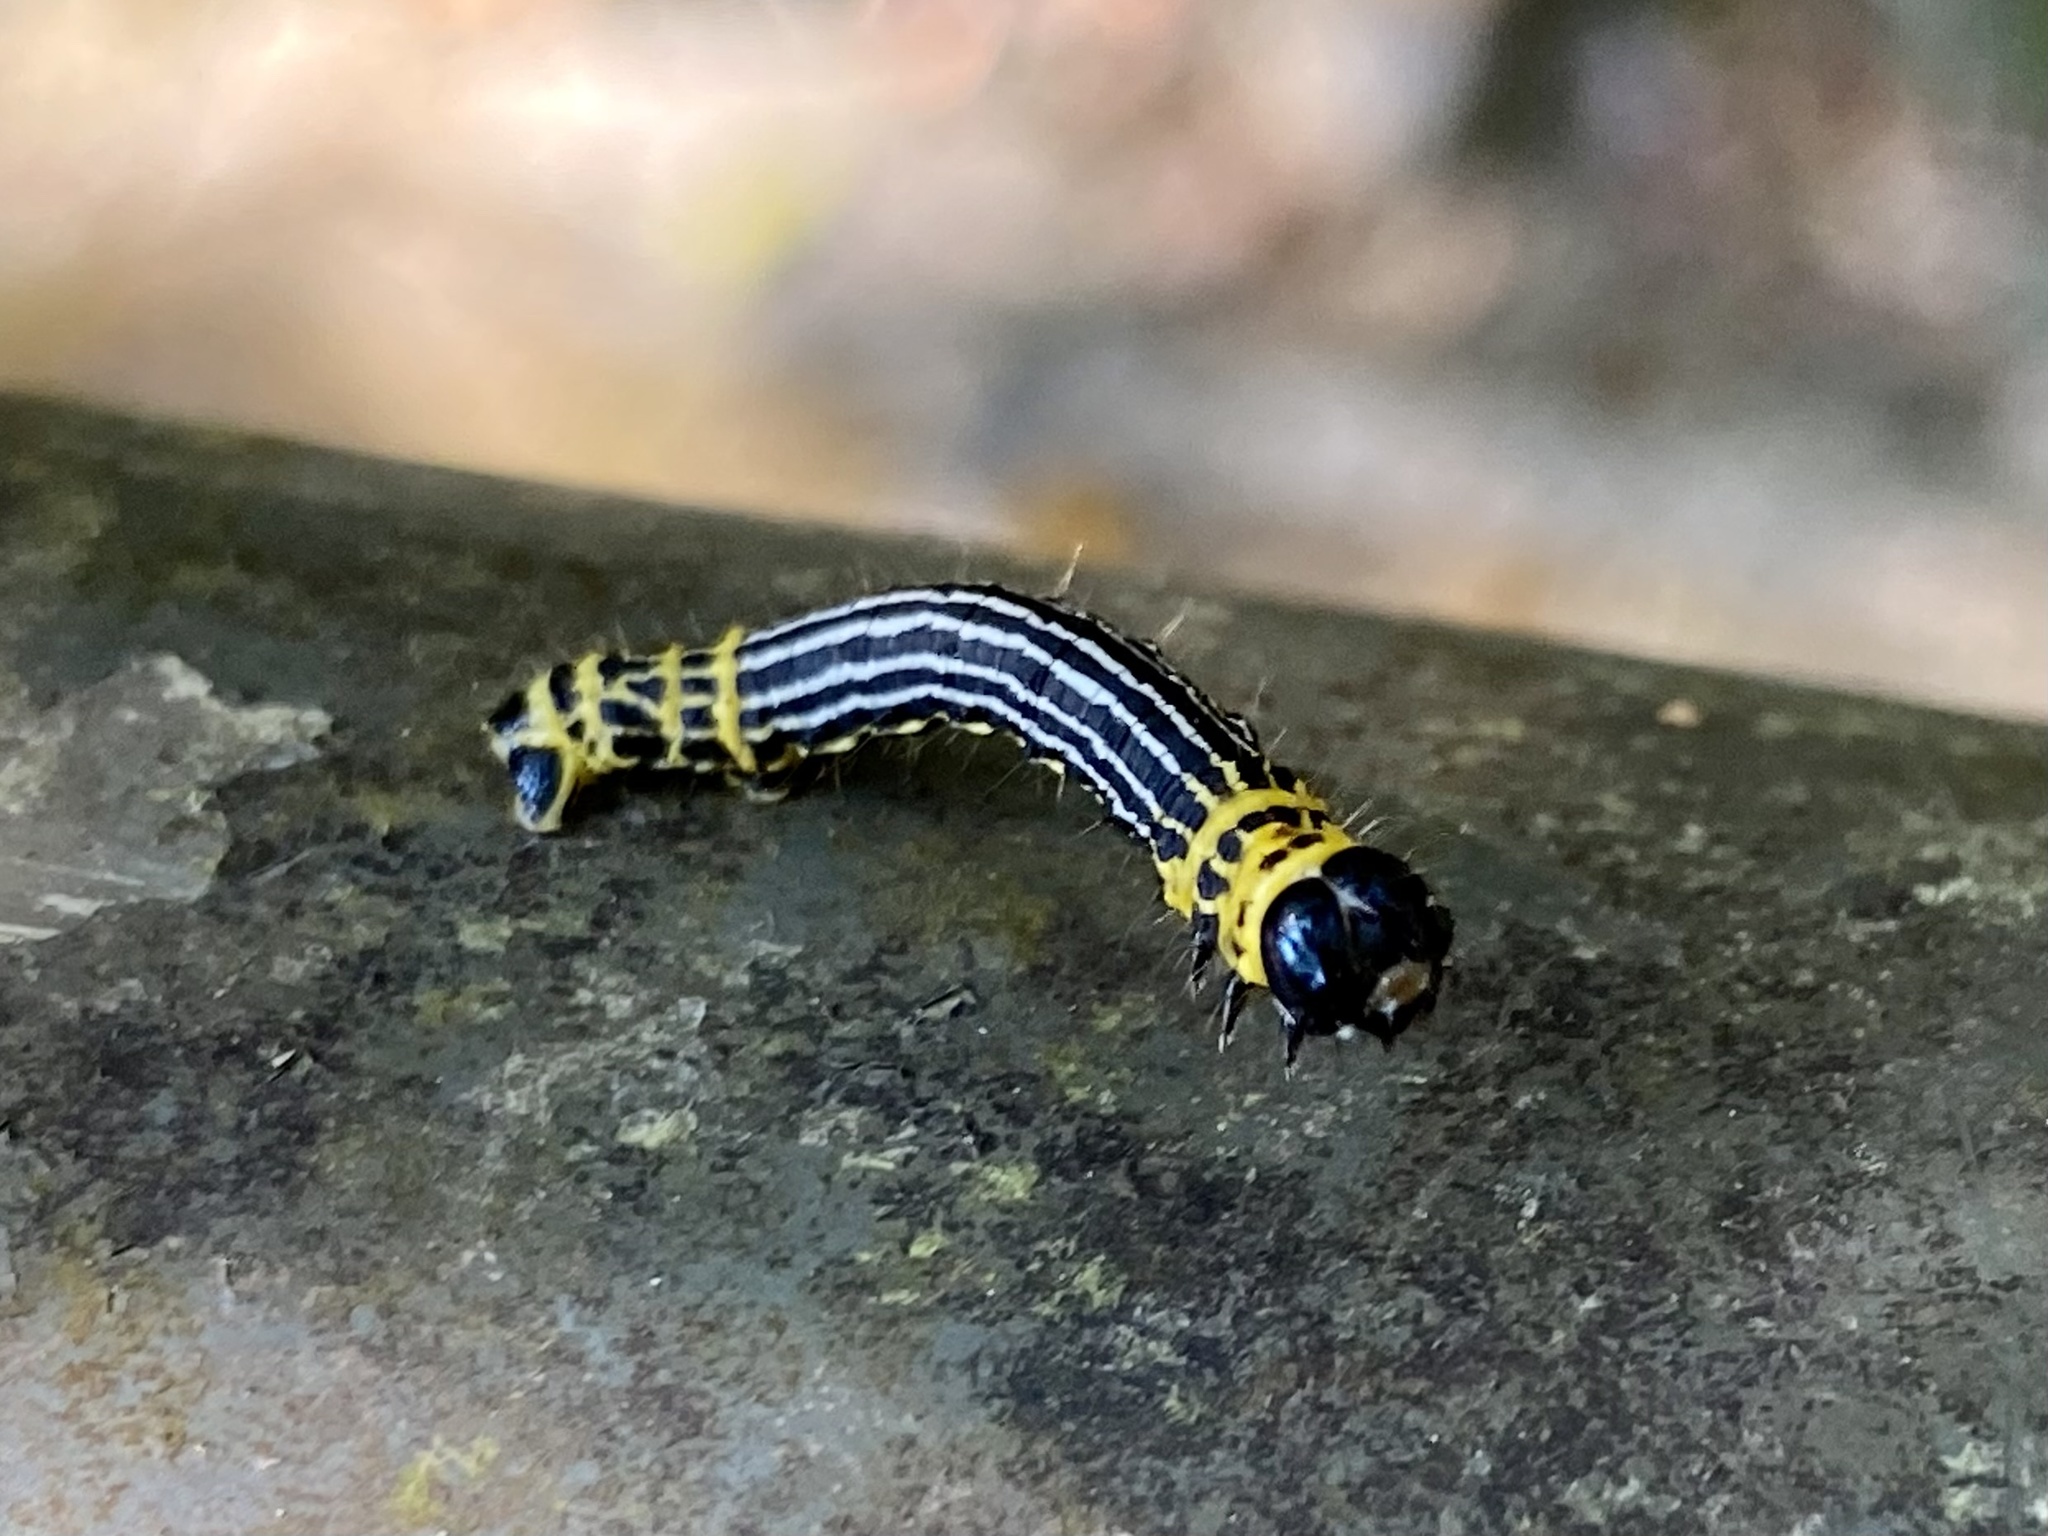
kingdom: Animalia
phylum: Arthropoda
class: Insecta
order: Lepidoptera
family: Geometridae
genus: Abraxas
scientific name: Abraxas amicula
